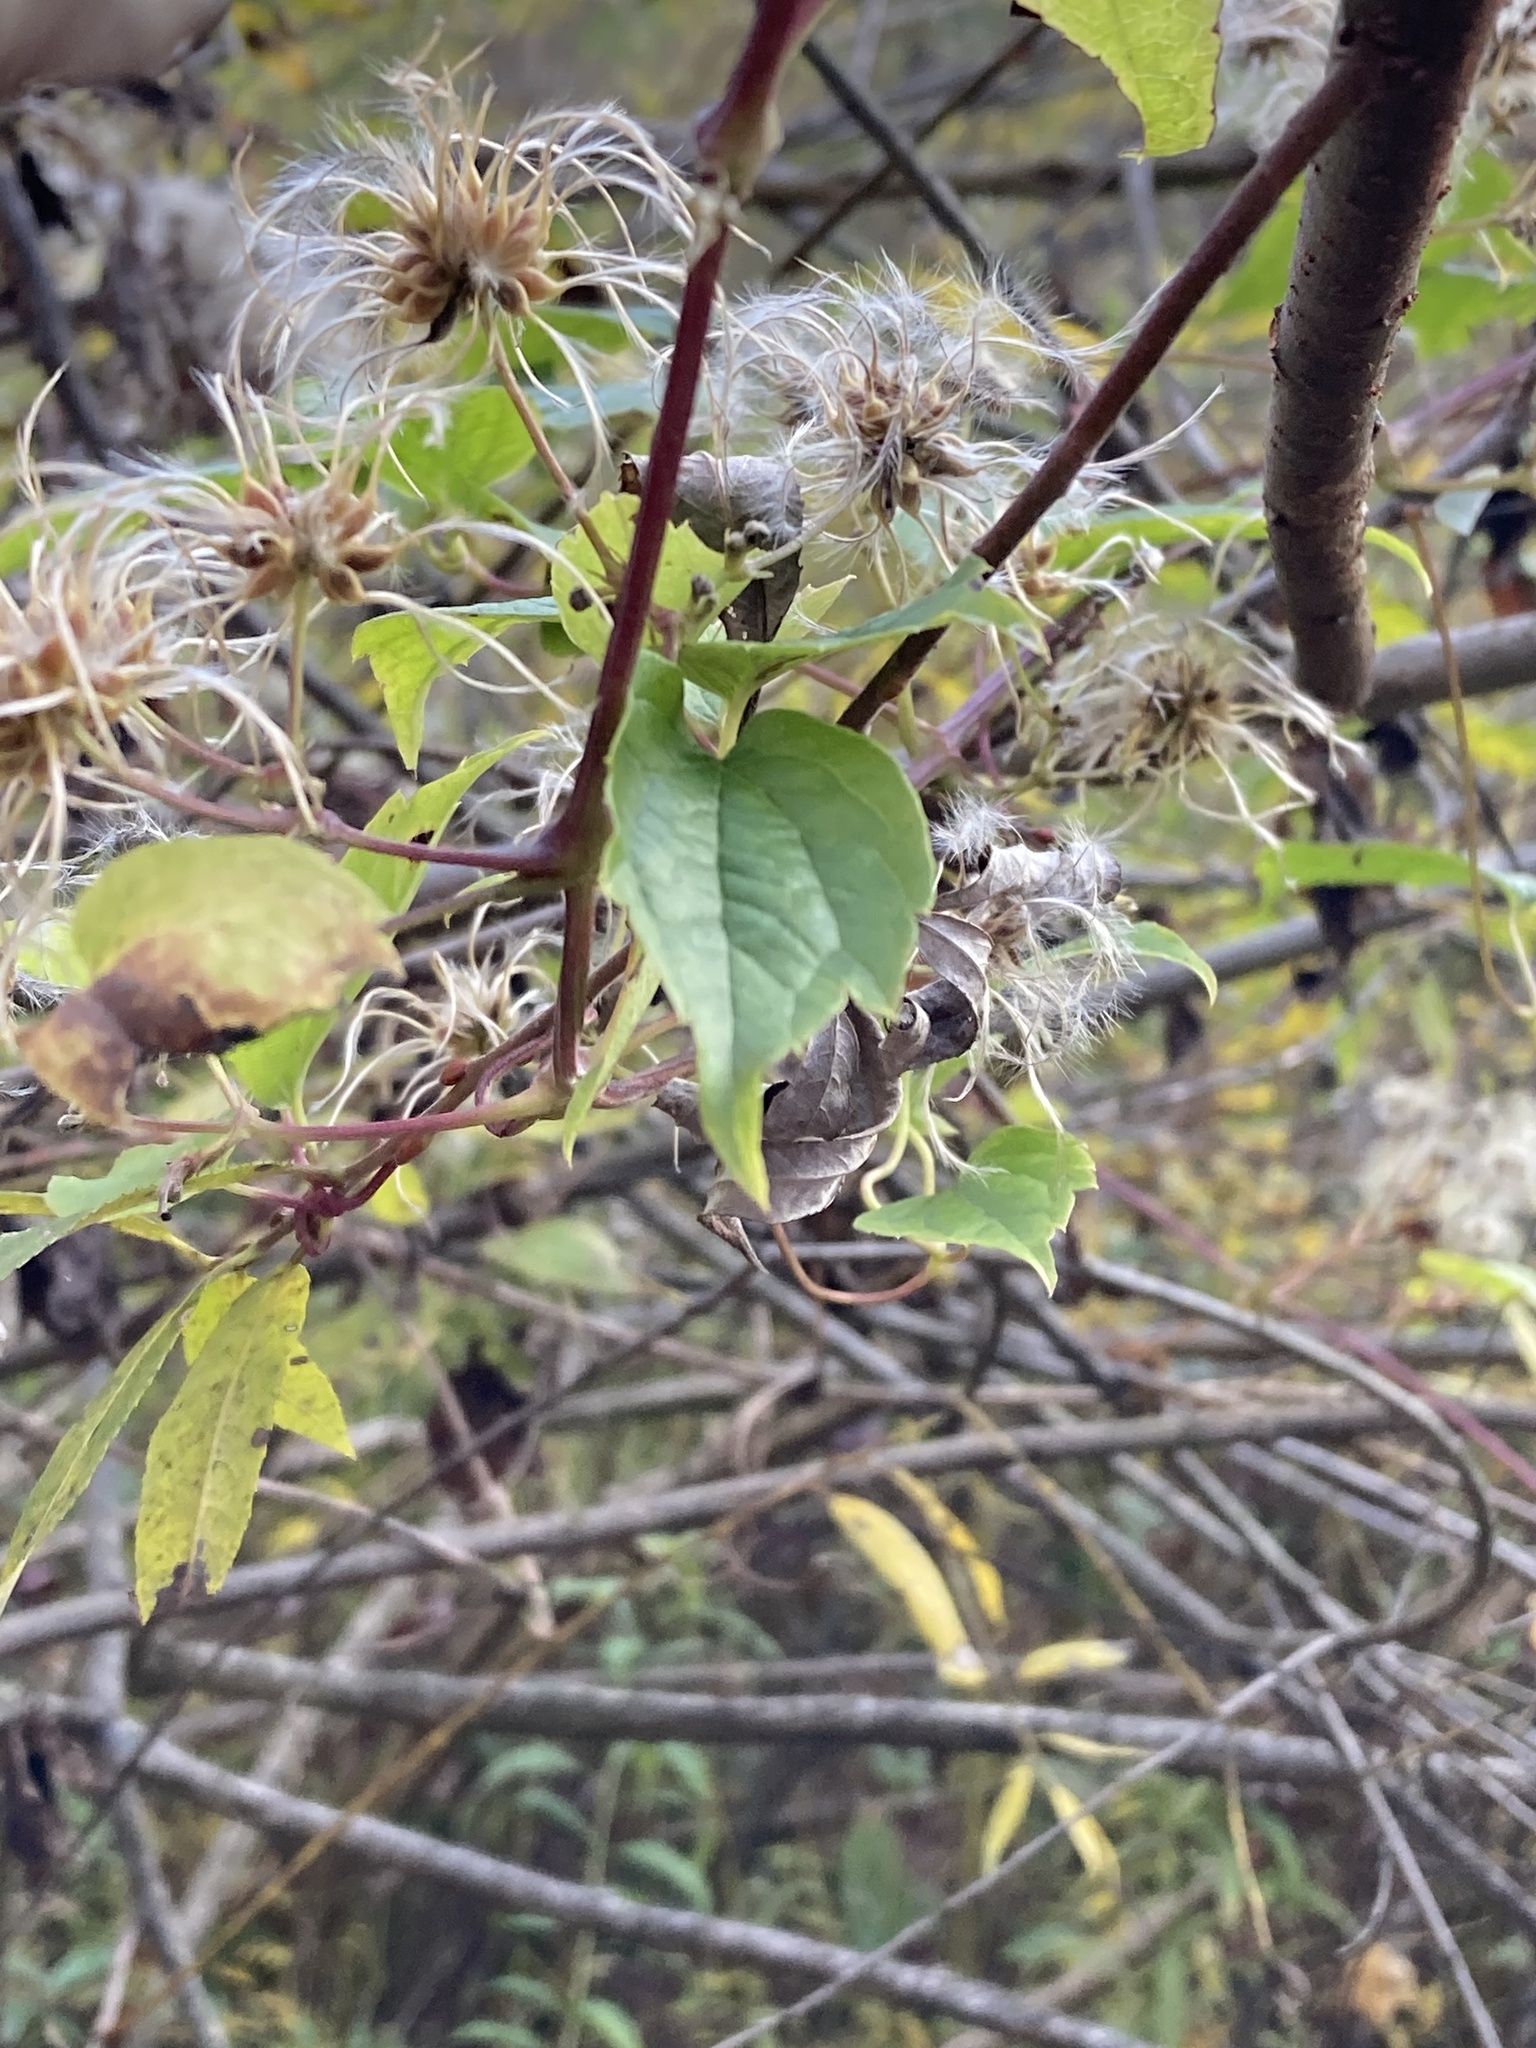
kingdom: Plantae
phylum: Tracheophyta
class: Magnoliopsida
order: Ranunculales
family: Ranunculaceae
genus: Clematis
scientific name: Clematis virginiana
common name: Virgin's-bower
